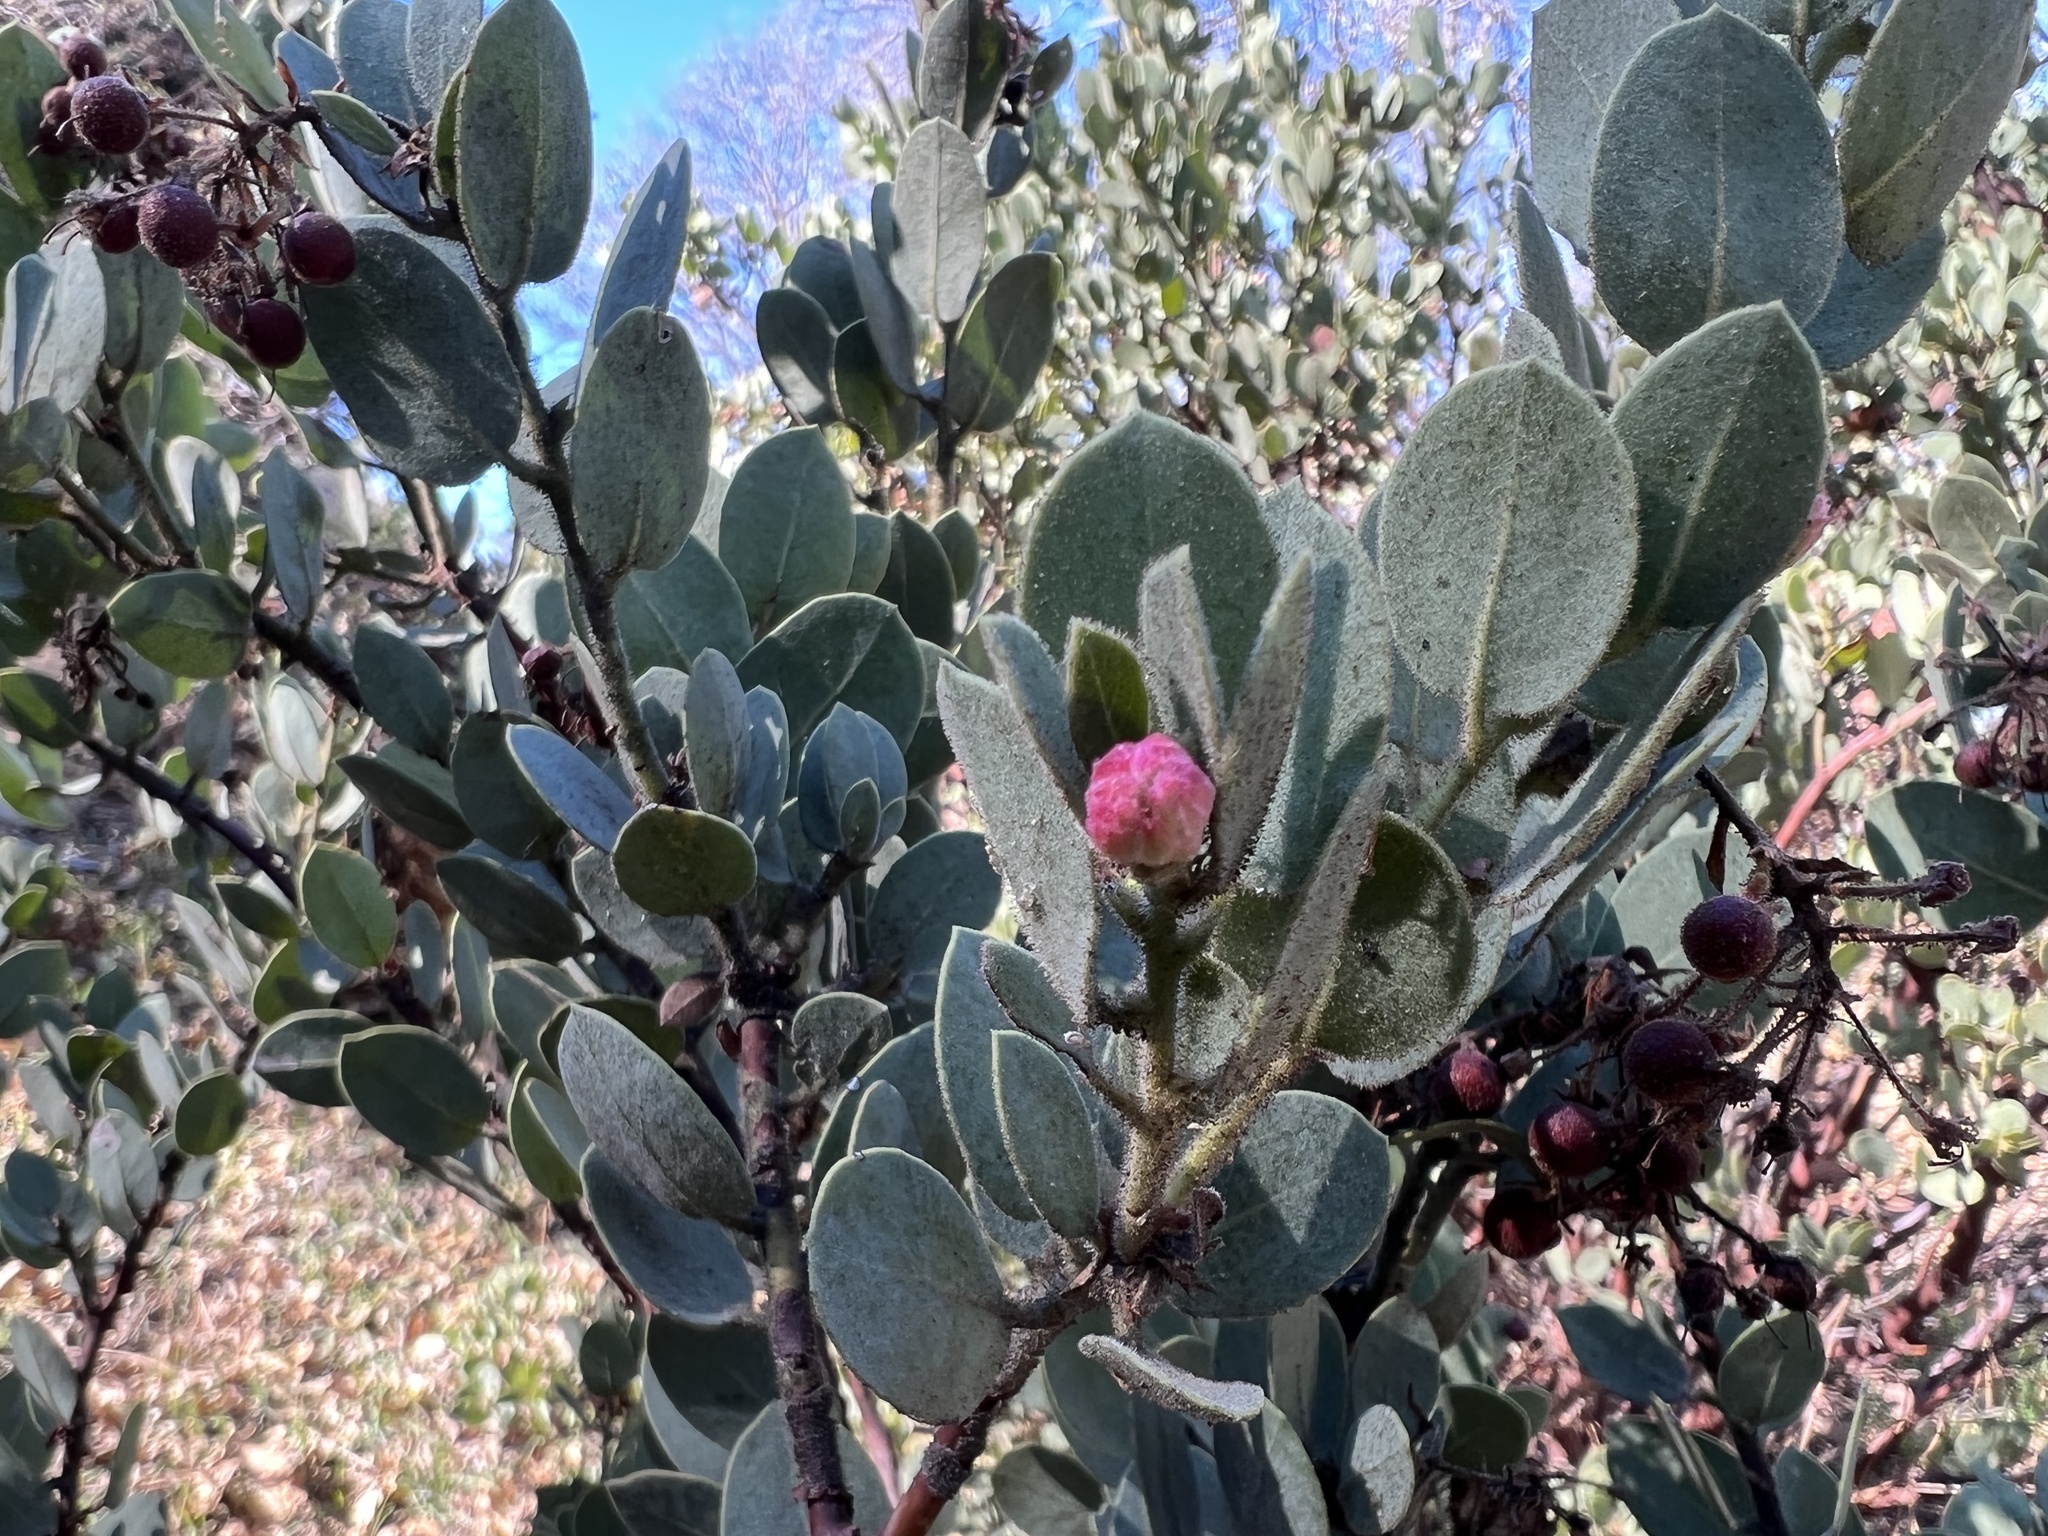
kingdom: Plantae
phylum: Tracheophyta
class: Magnoliopsida
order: Ericales
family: Ericaceae
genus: Arctostaphylos
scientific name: Arctostaphylos pringlei
